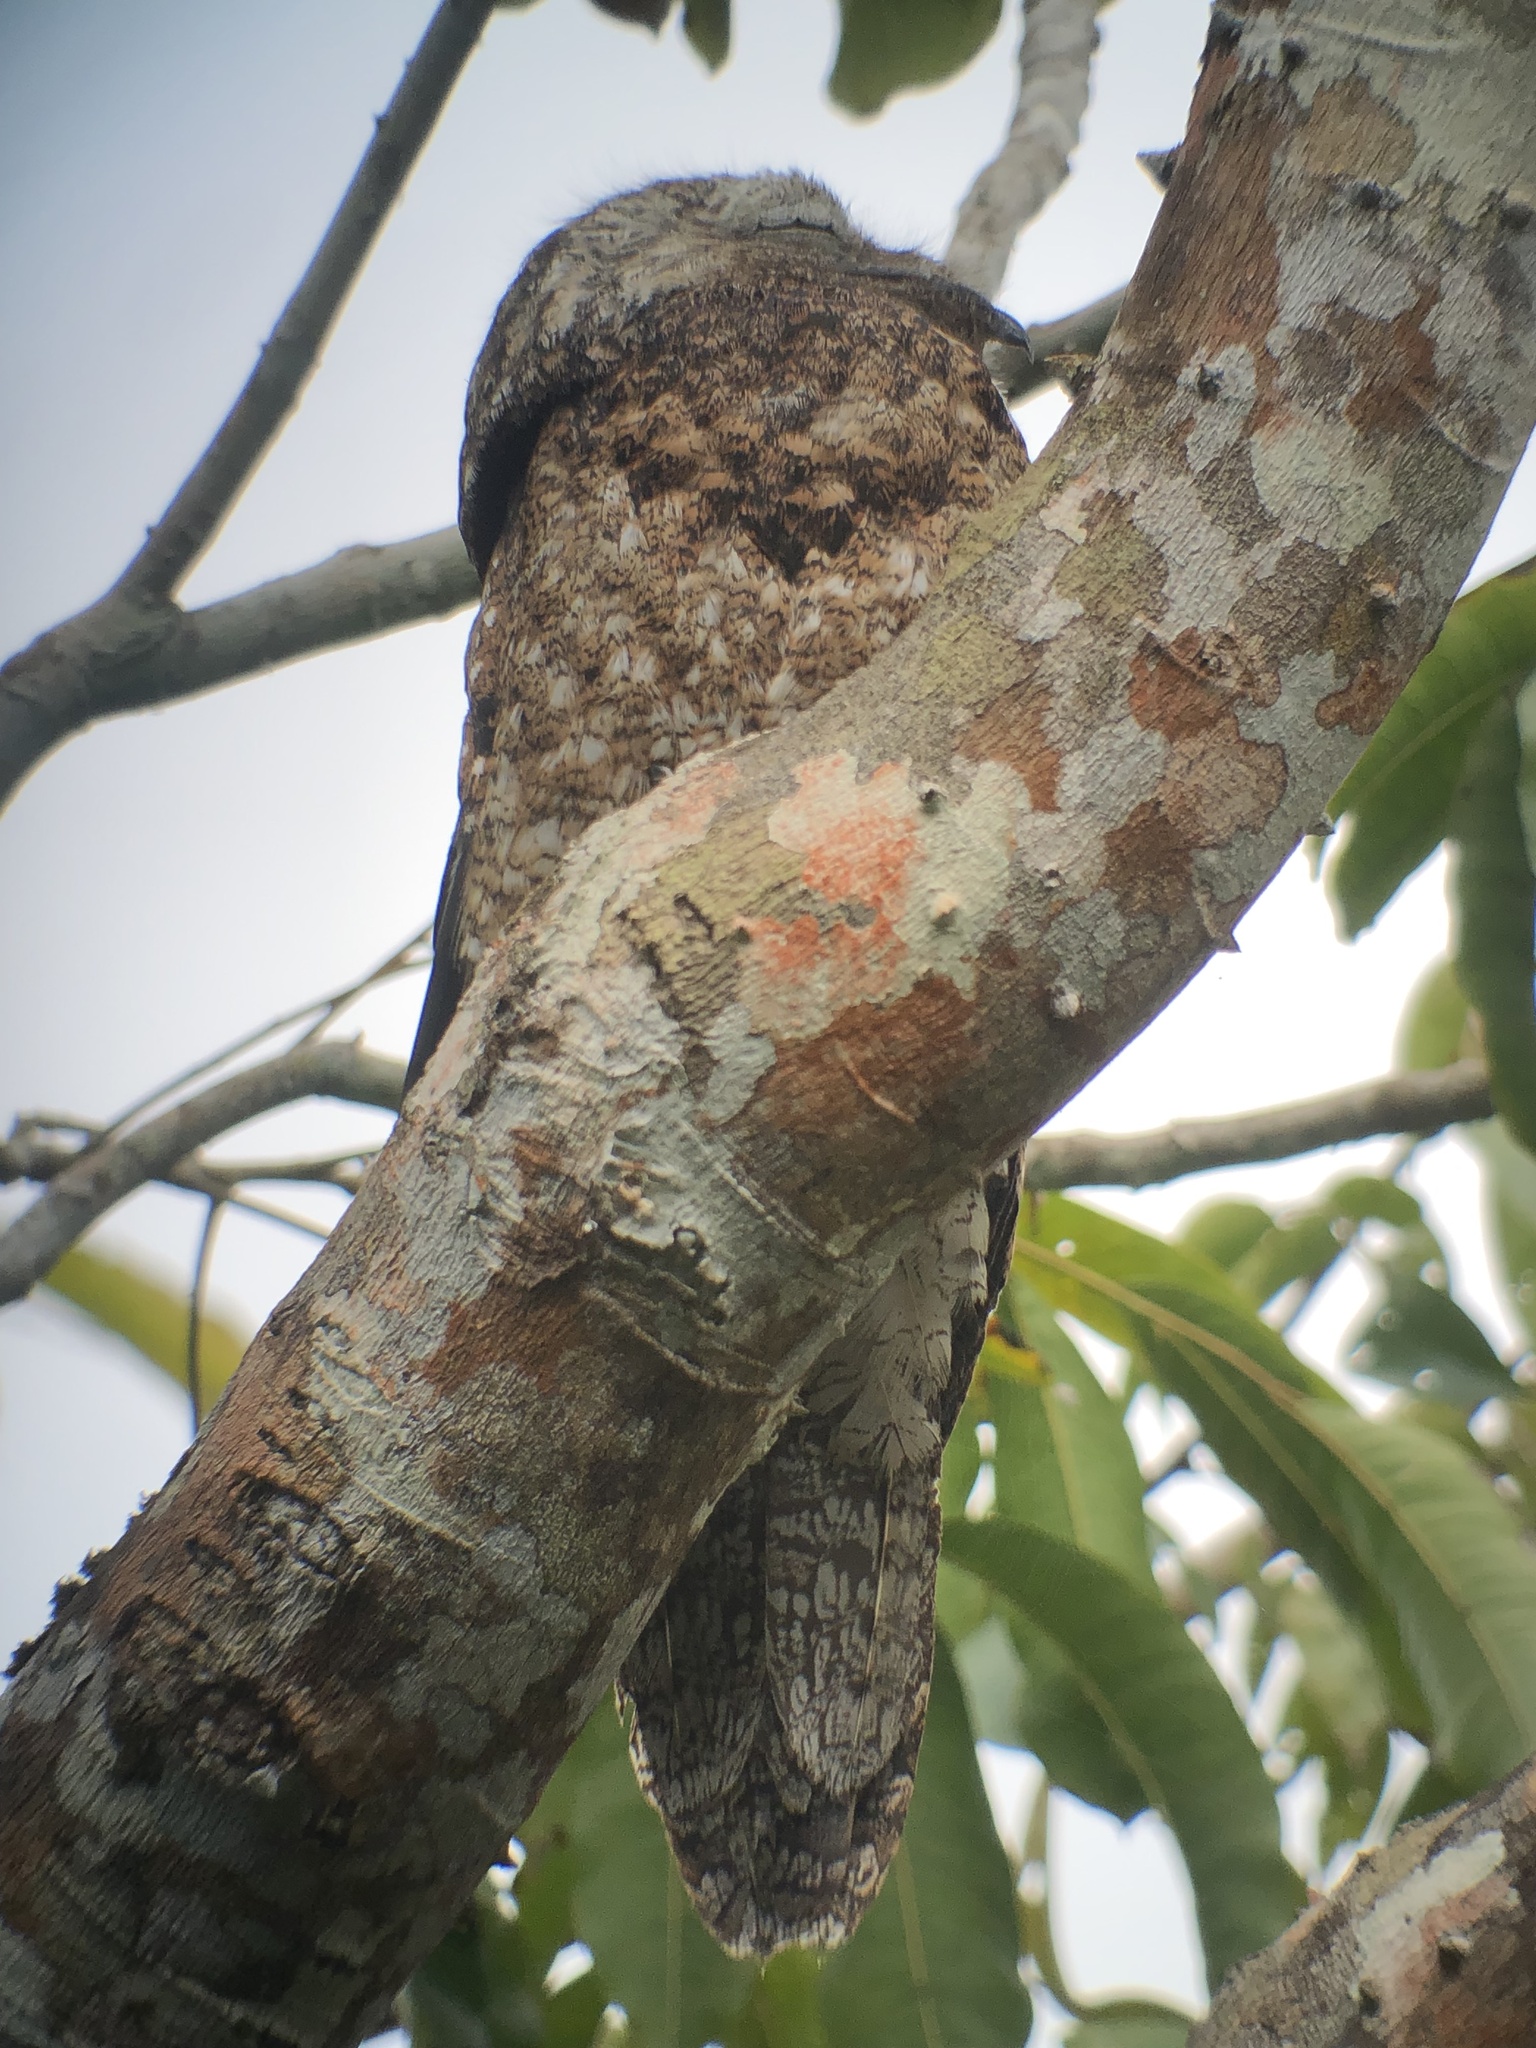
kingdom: Animalia
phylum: Chordata
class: Aves
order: Nyctibiiformes
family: Nyctibiidae
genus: Nyctibius
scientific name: Nyctibius grandis
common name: Great potoo
